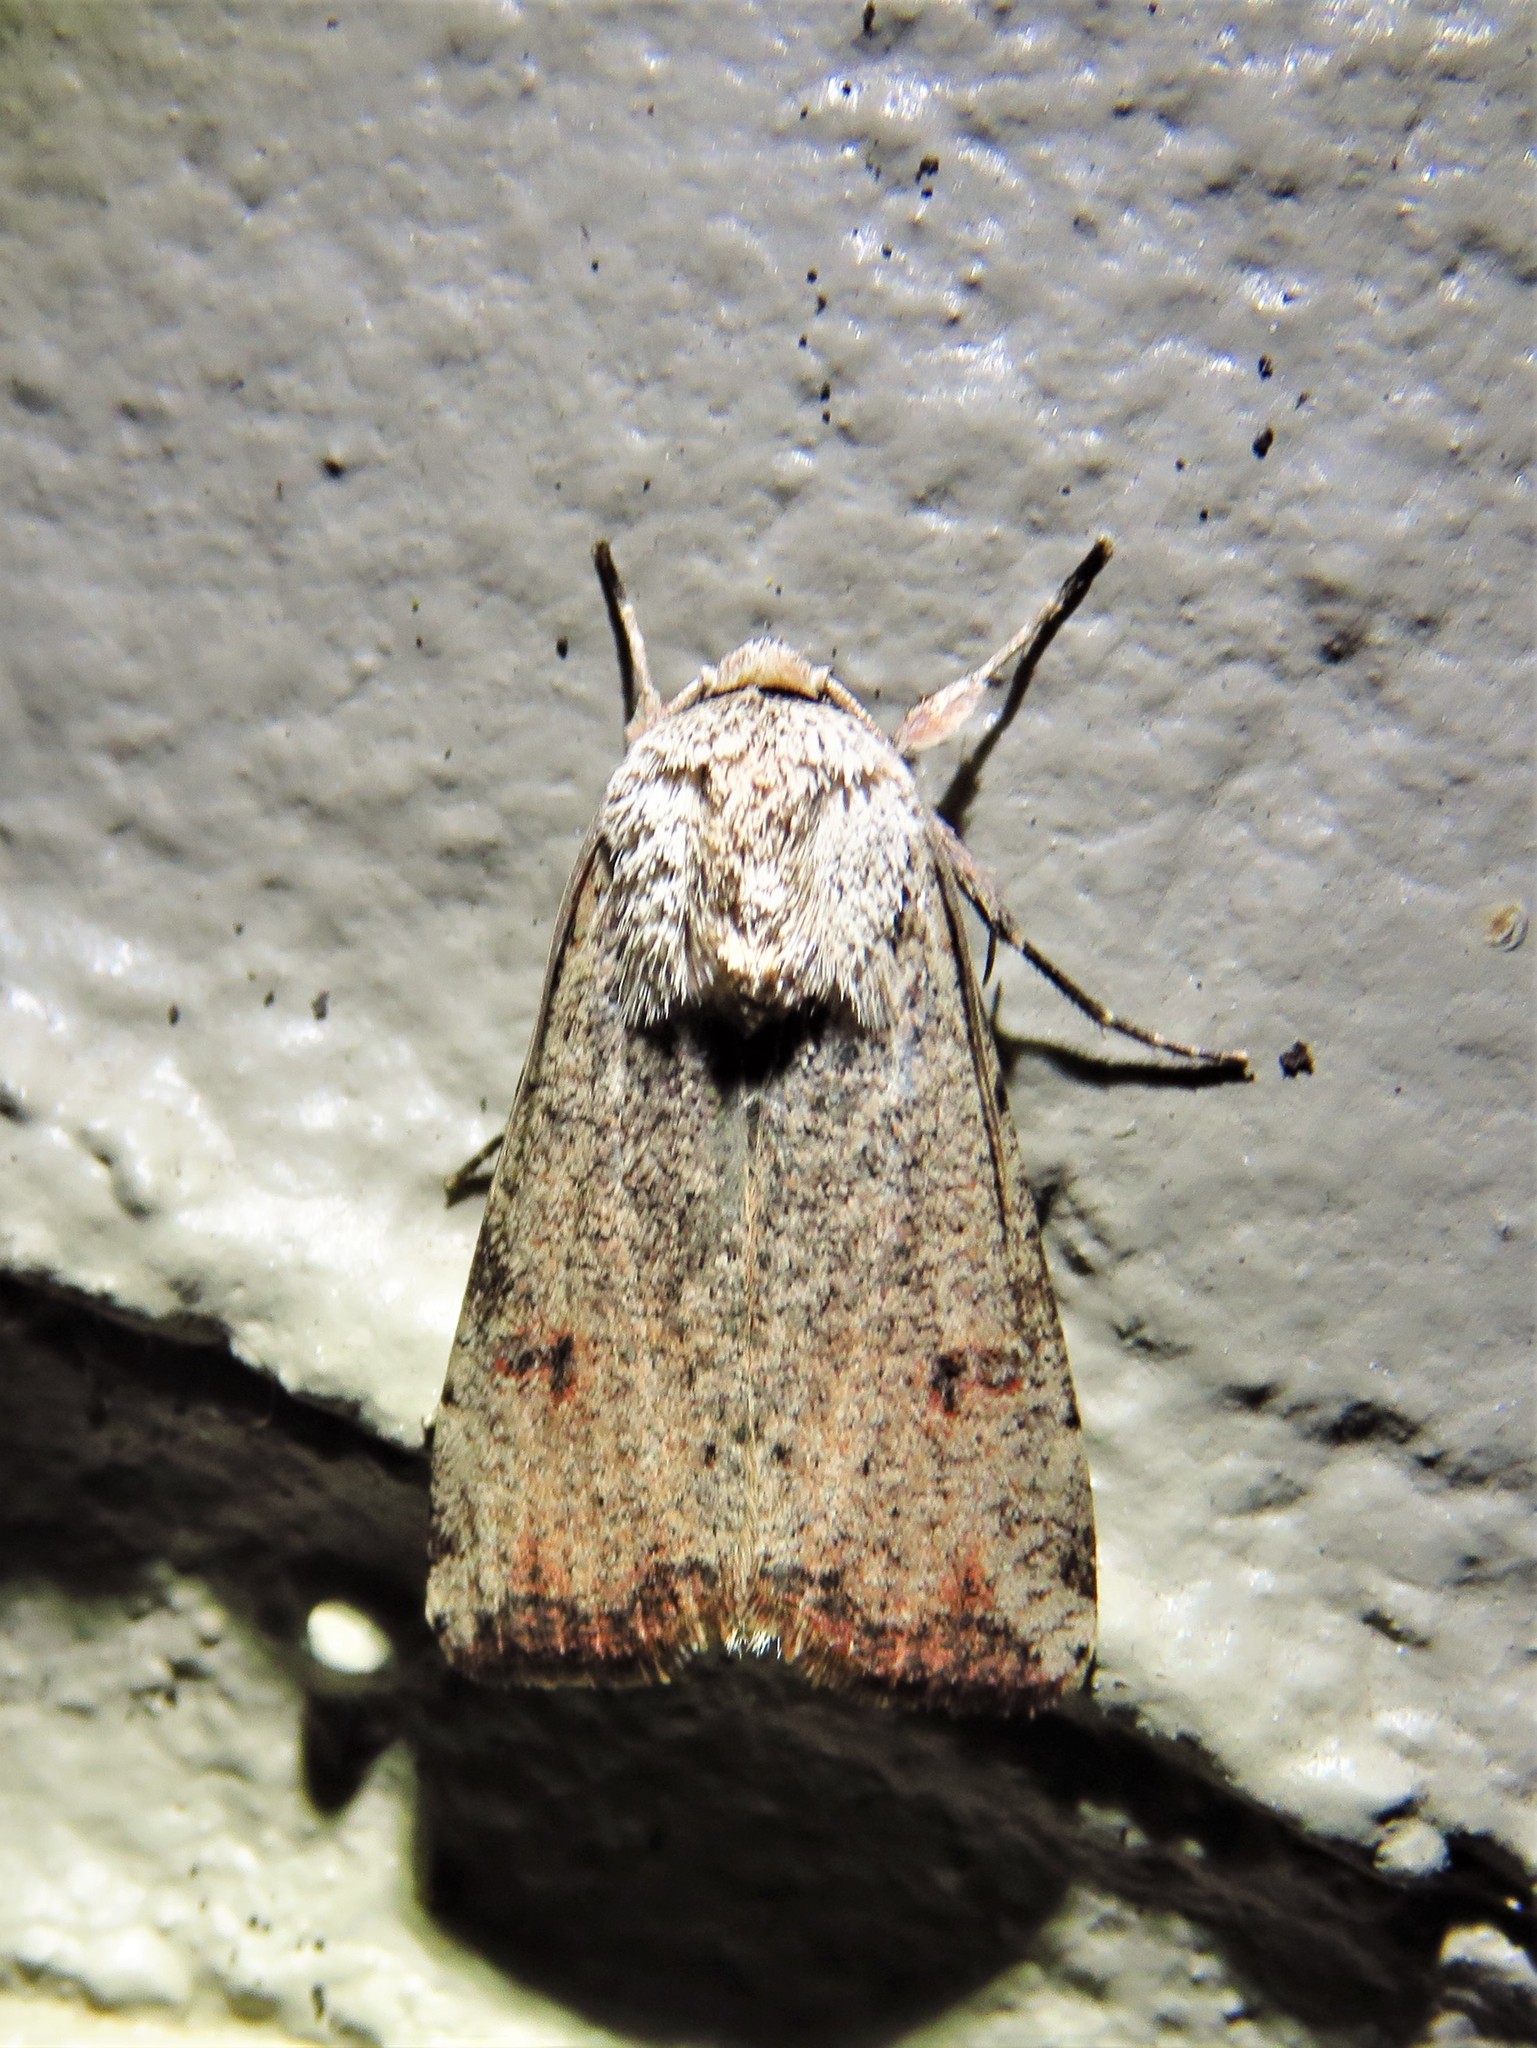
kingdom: Animalia
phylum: Arthropoda
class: Insecta
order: Lepidoptera
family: Noctuidae
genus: Anicla
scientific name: Anicla infecta
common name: Green cutworm
